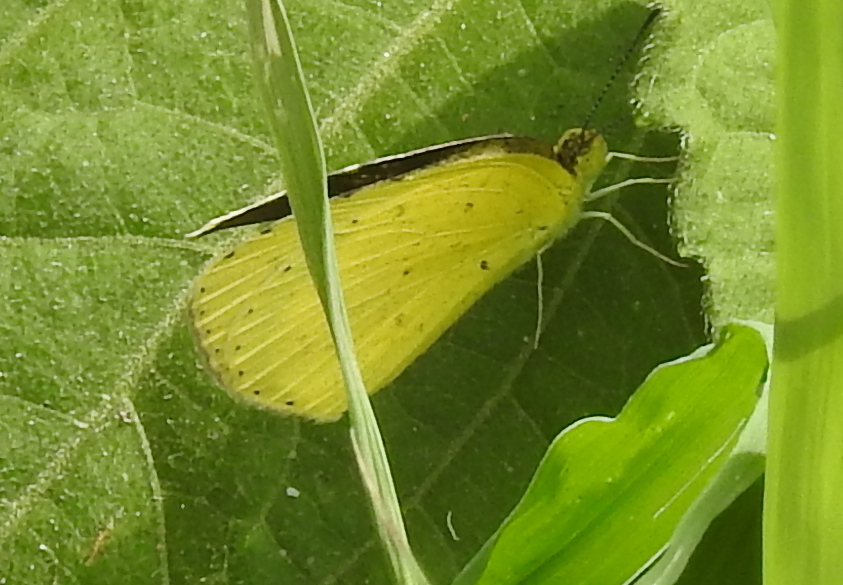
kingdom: Animalia
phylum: Arthropoda
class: Insecta
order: Lepidoptera
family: Pieridae
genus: Eurema
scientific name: Eurema brigitta
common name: Small grass yellow
